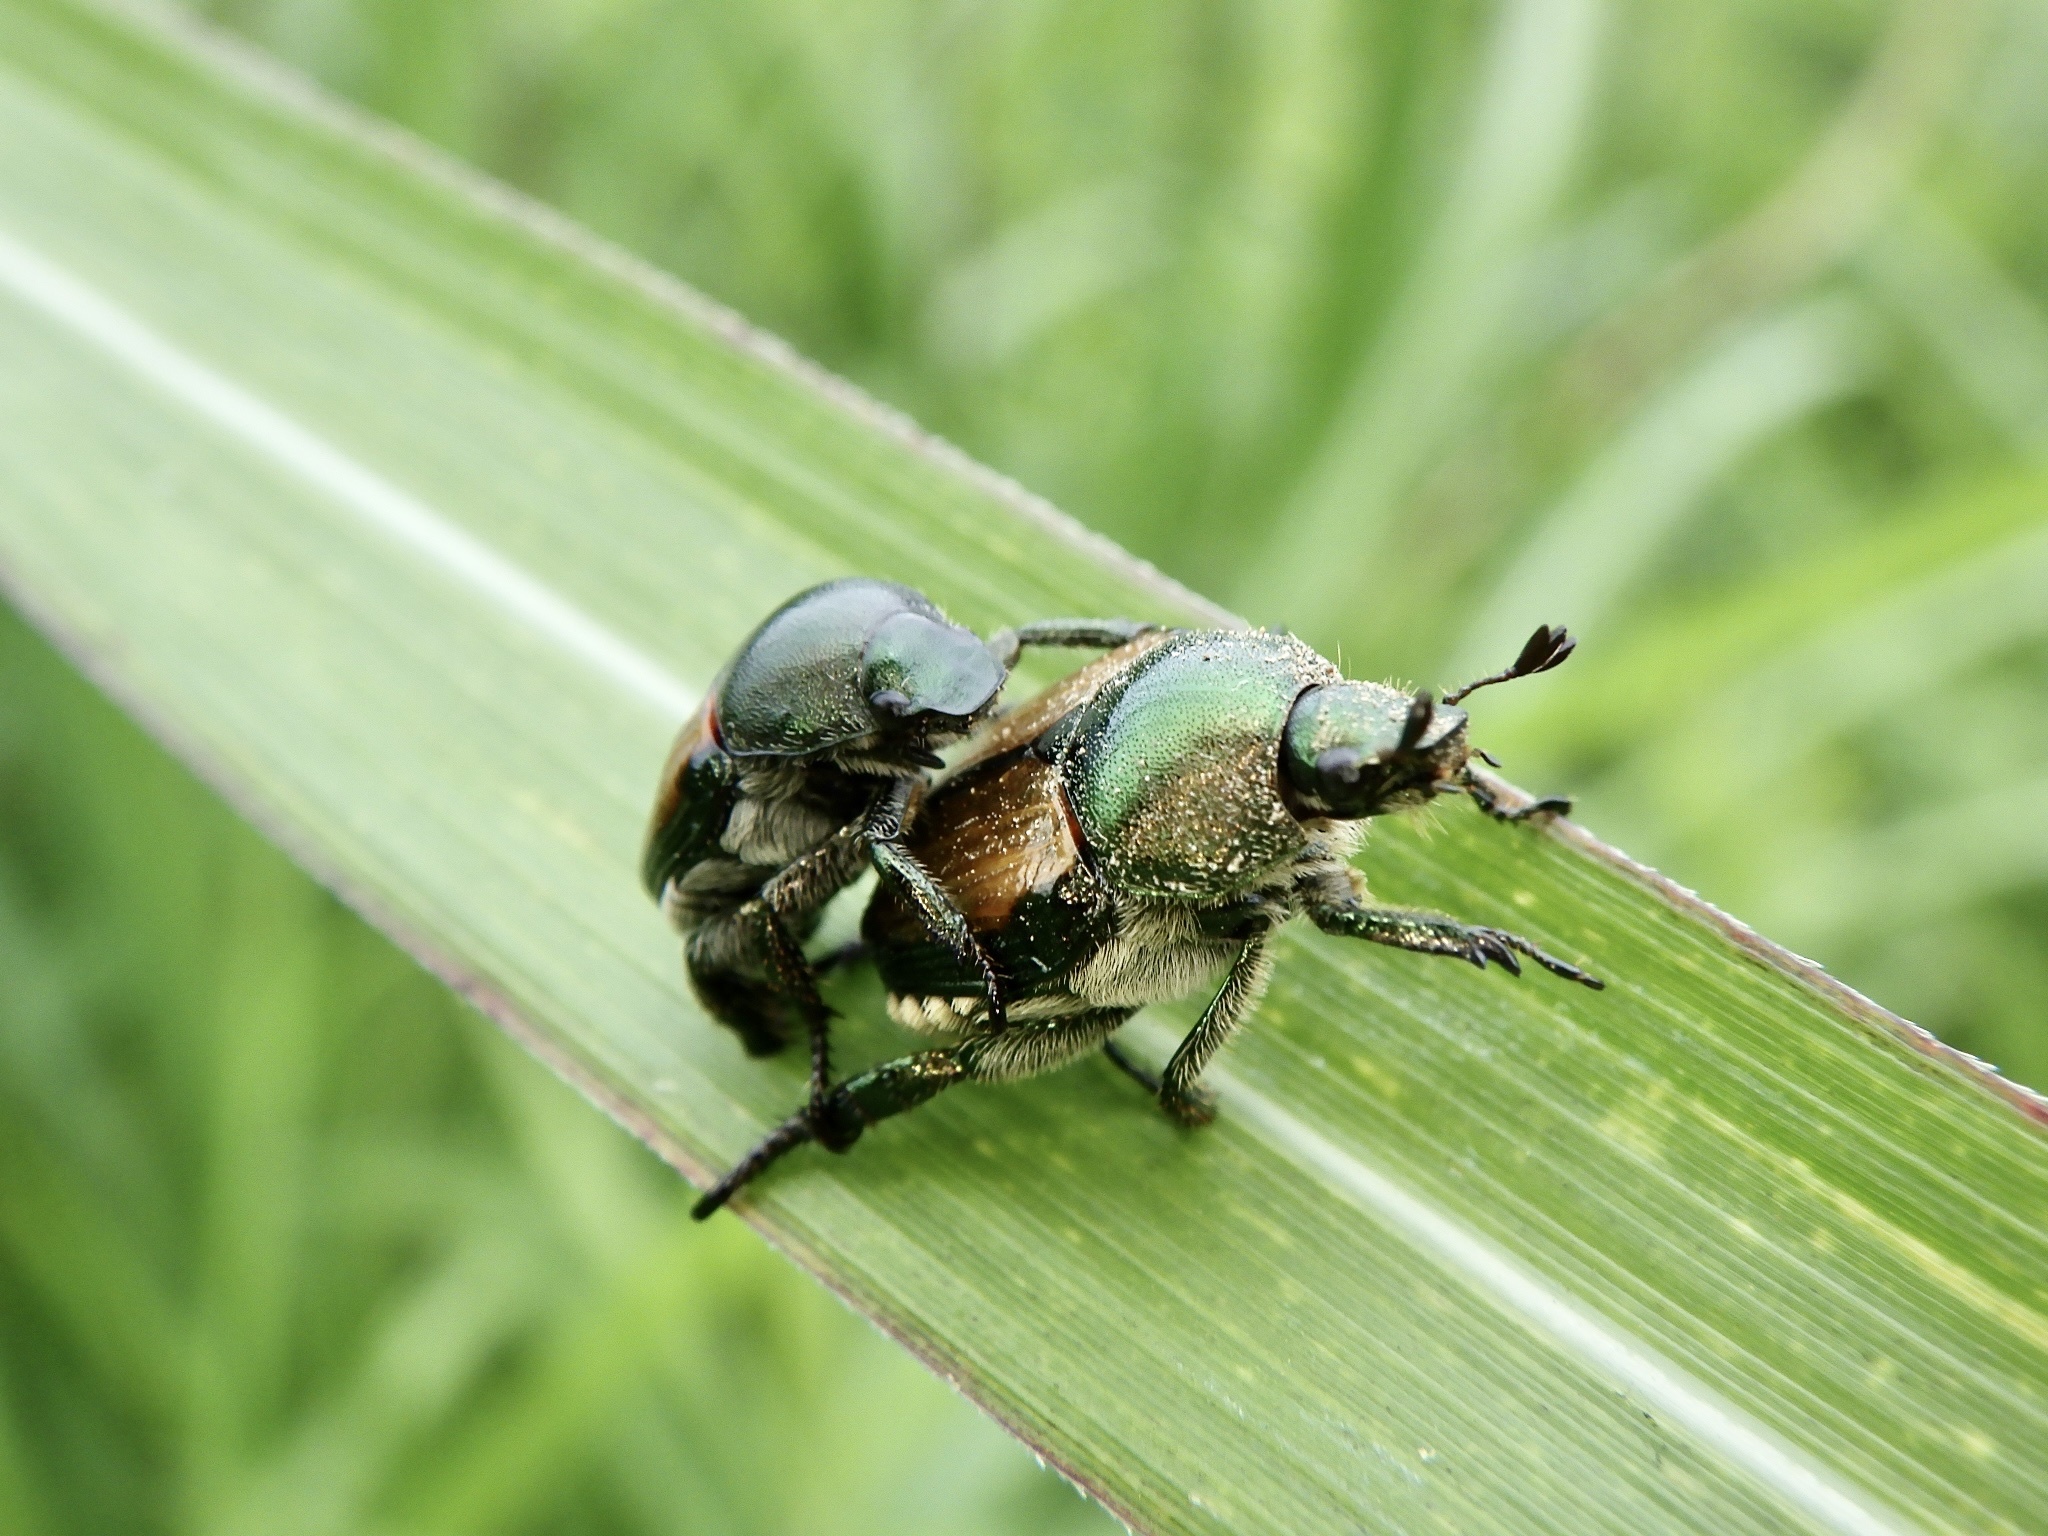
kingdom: Animalia
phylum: Arthropoda
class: Insecta
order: Coleoptera
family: Scarabaeidae
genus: Popillia
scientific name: Popillia japonica
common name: Japanese beetle
